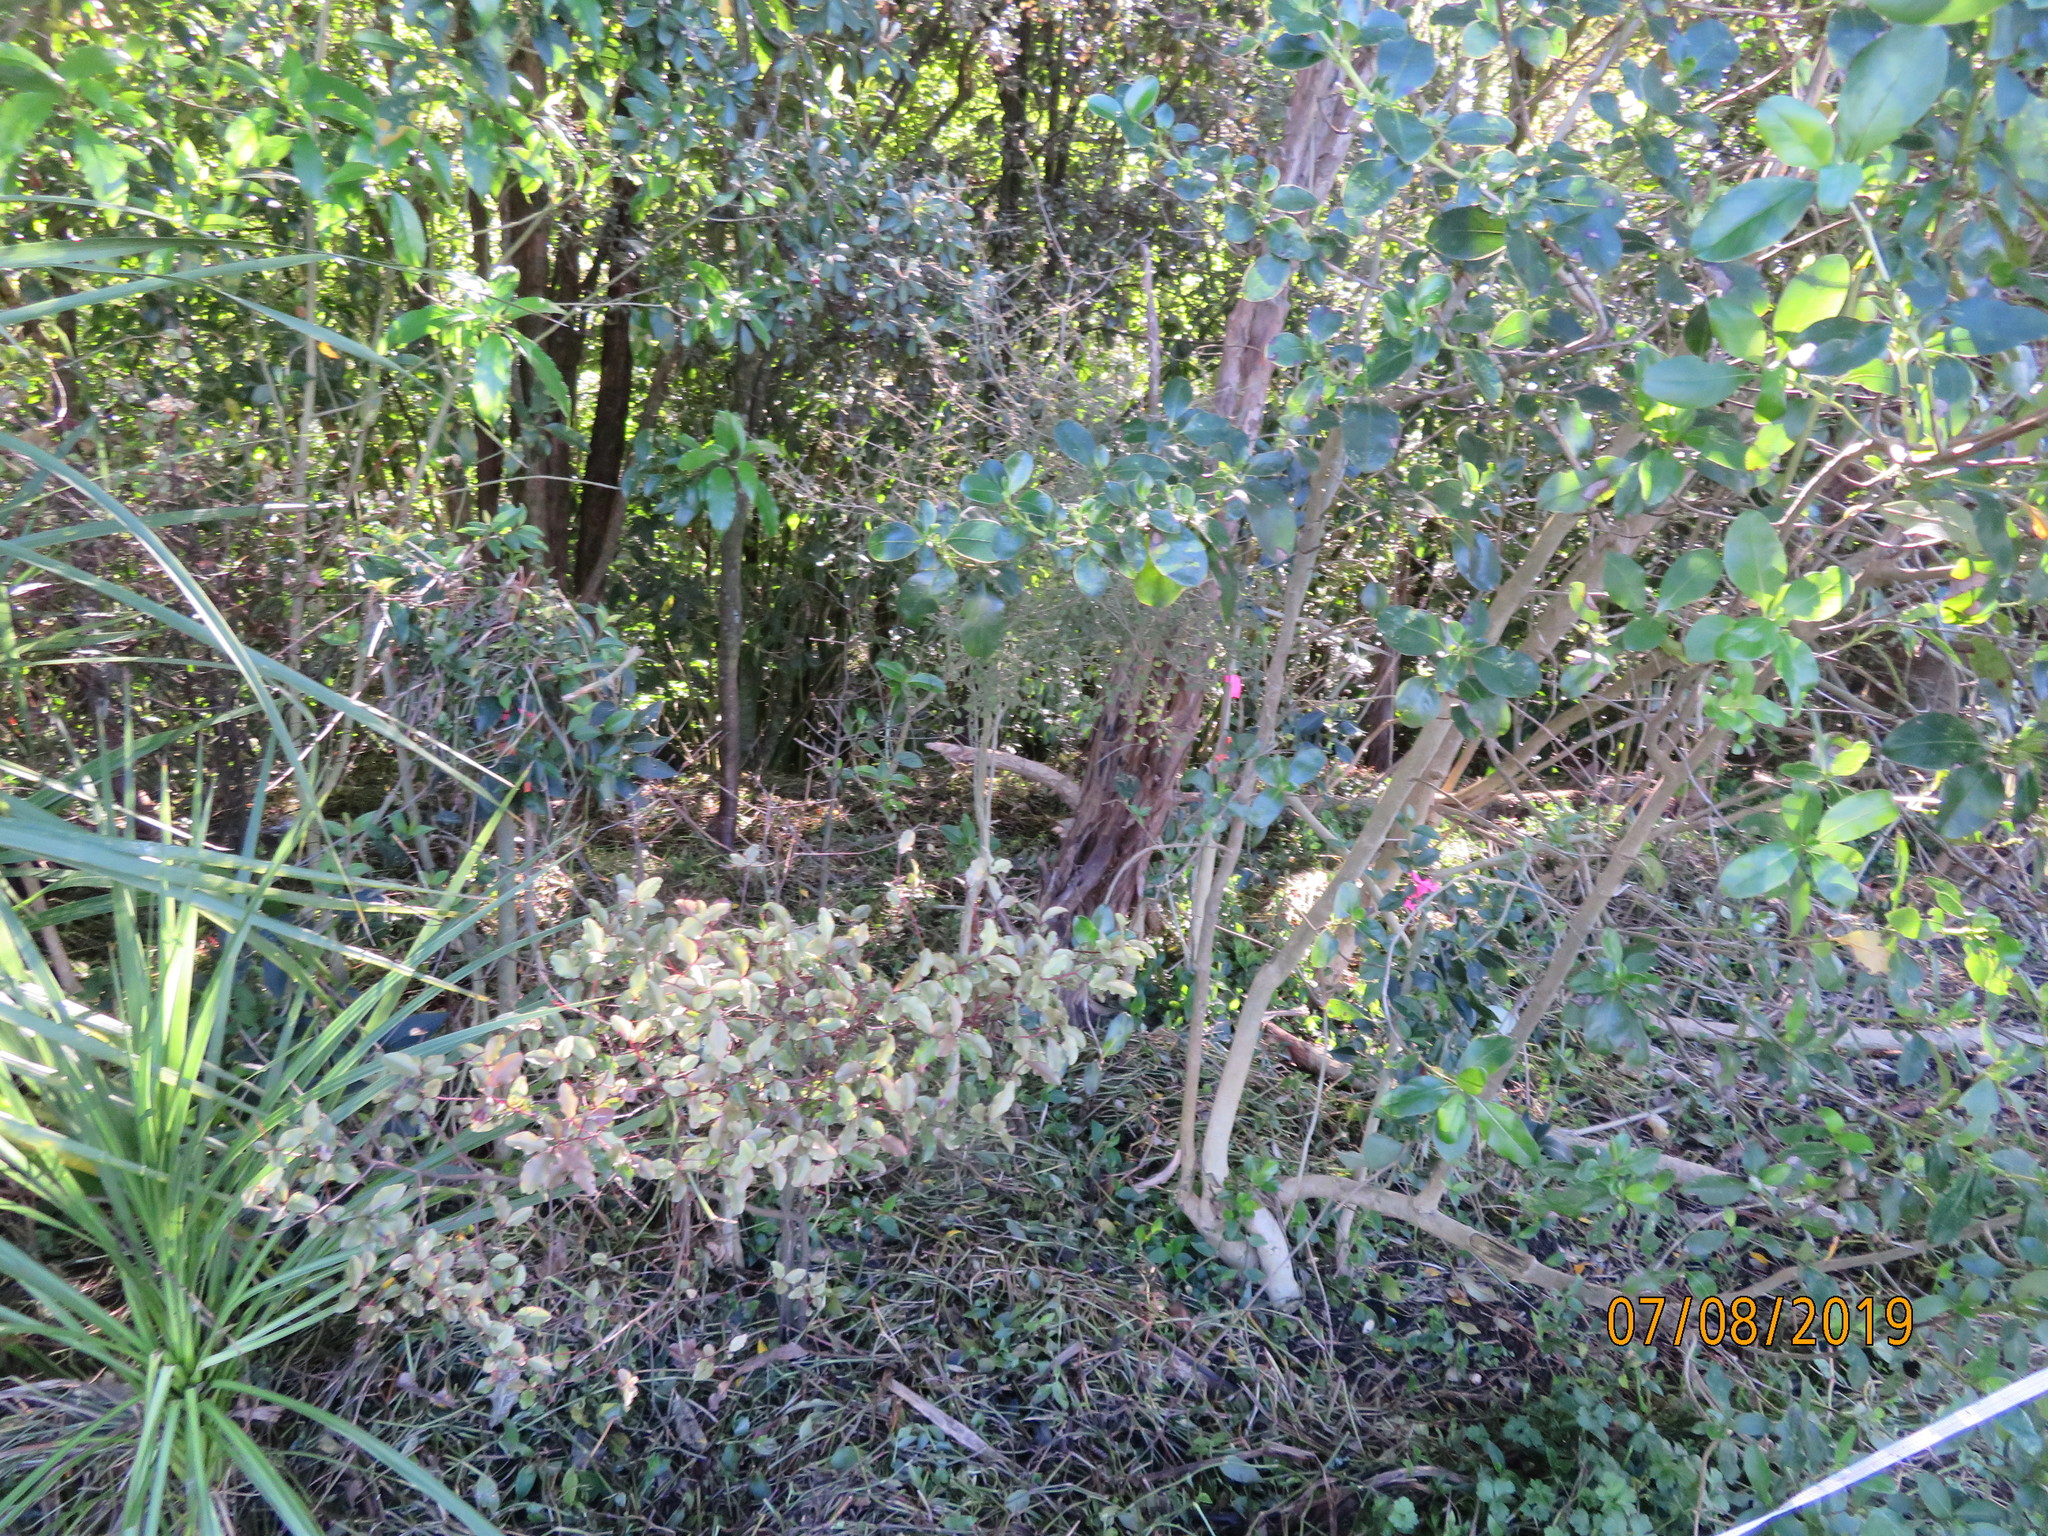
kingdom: Plantae
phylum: Tracheophyta
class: Magnoliopsida
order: Ericales
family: Primulaceae
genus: Myrsine
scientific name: Myrsine australis
